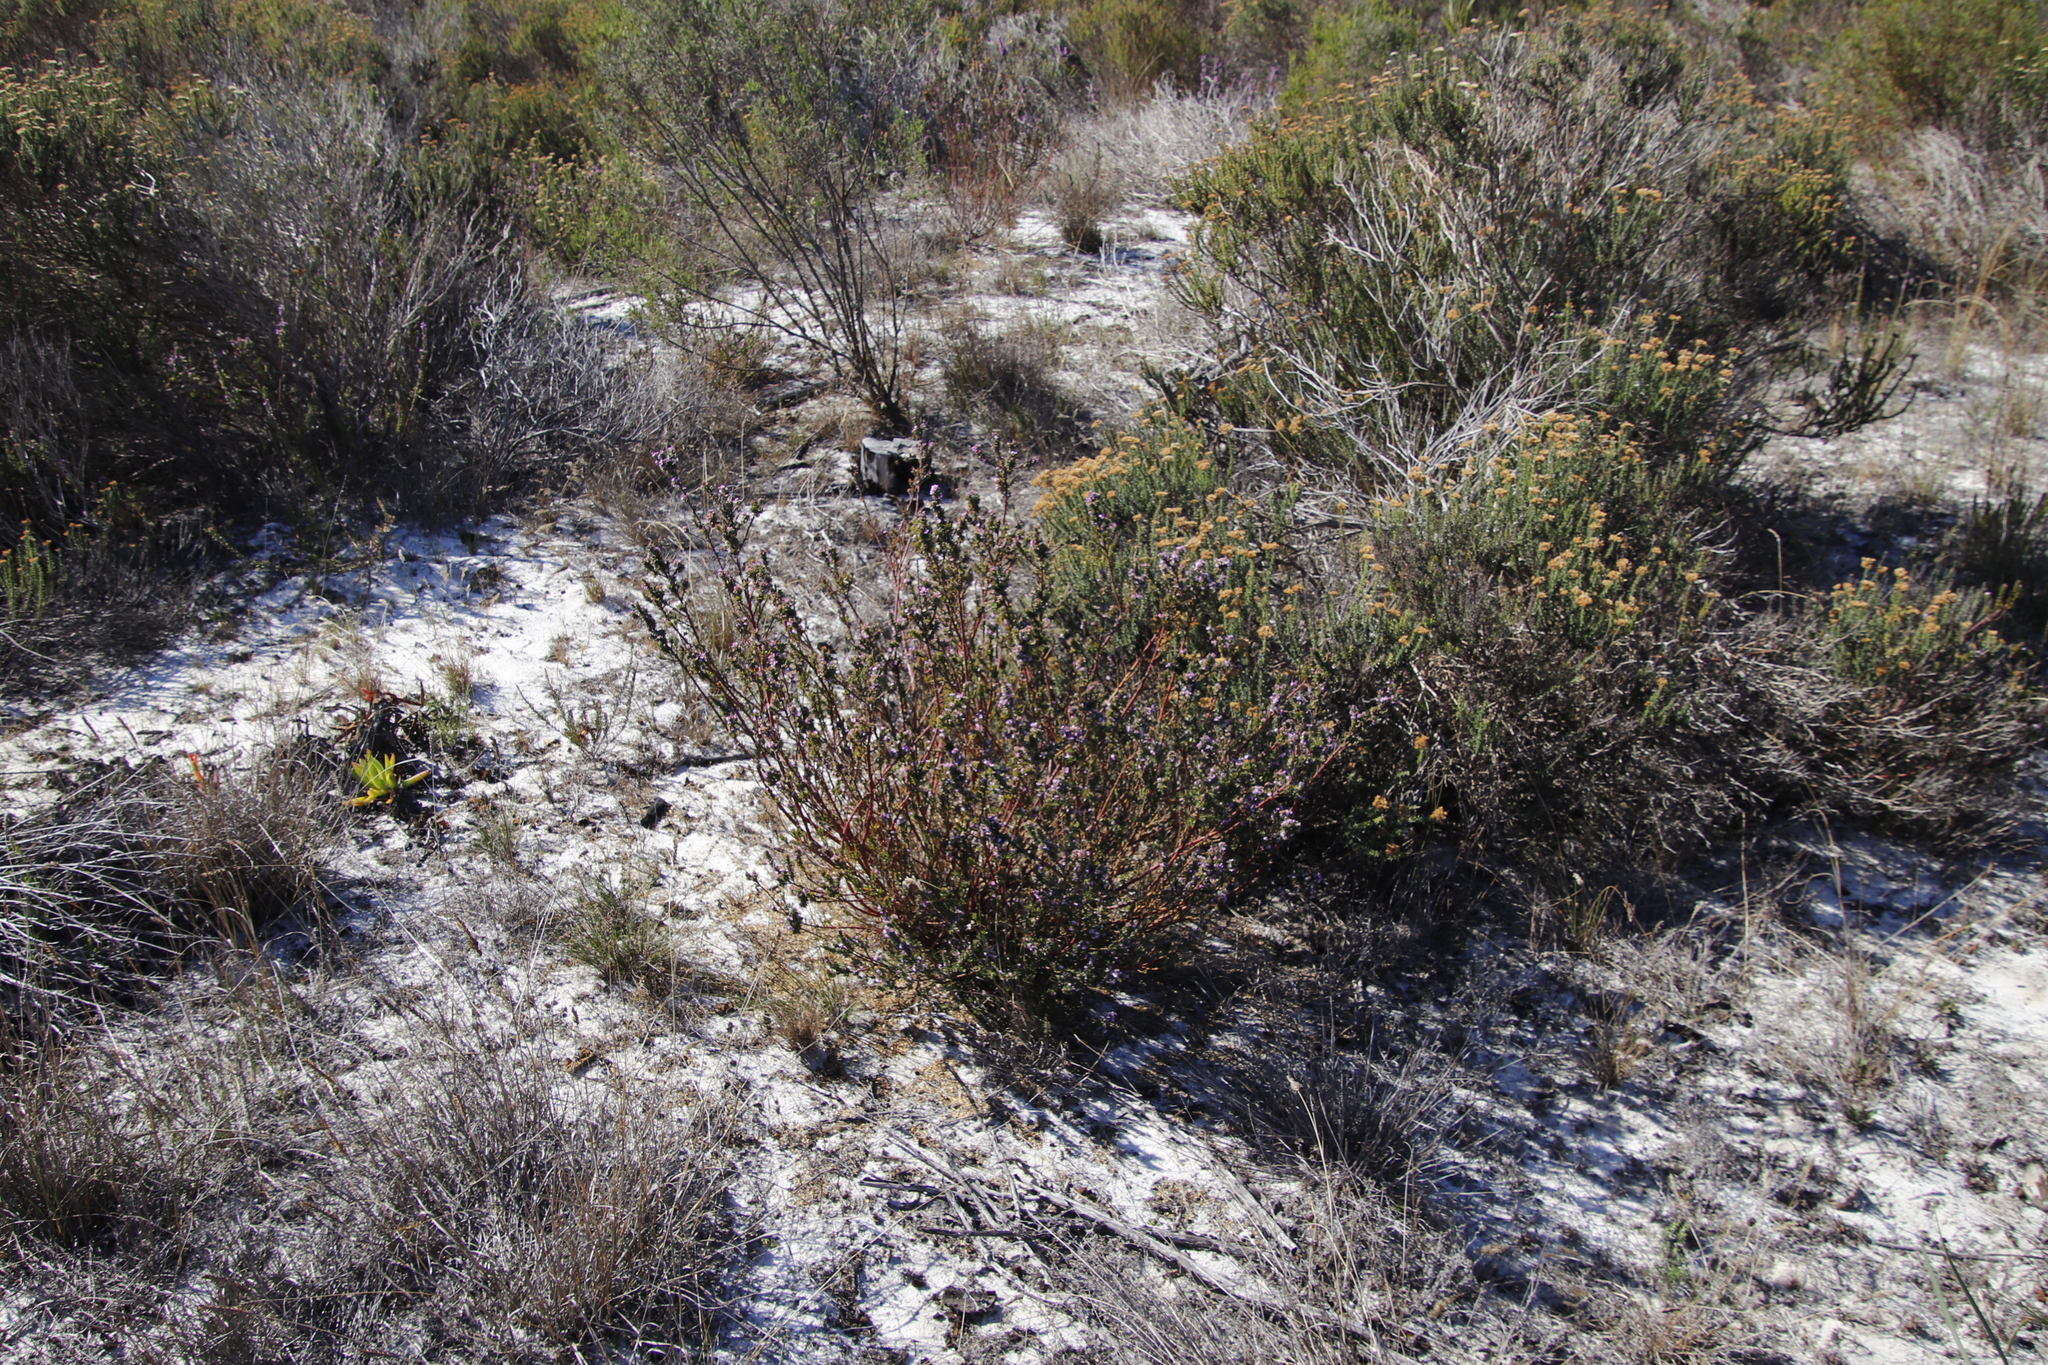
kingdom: Plantae
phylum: Tracheophyta
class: Magnoliopsida
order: Fabales
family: Polygalaceae
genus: Muraltia
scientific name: Muraltia thymifolia
